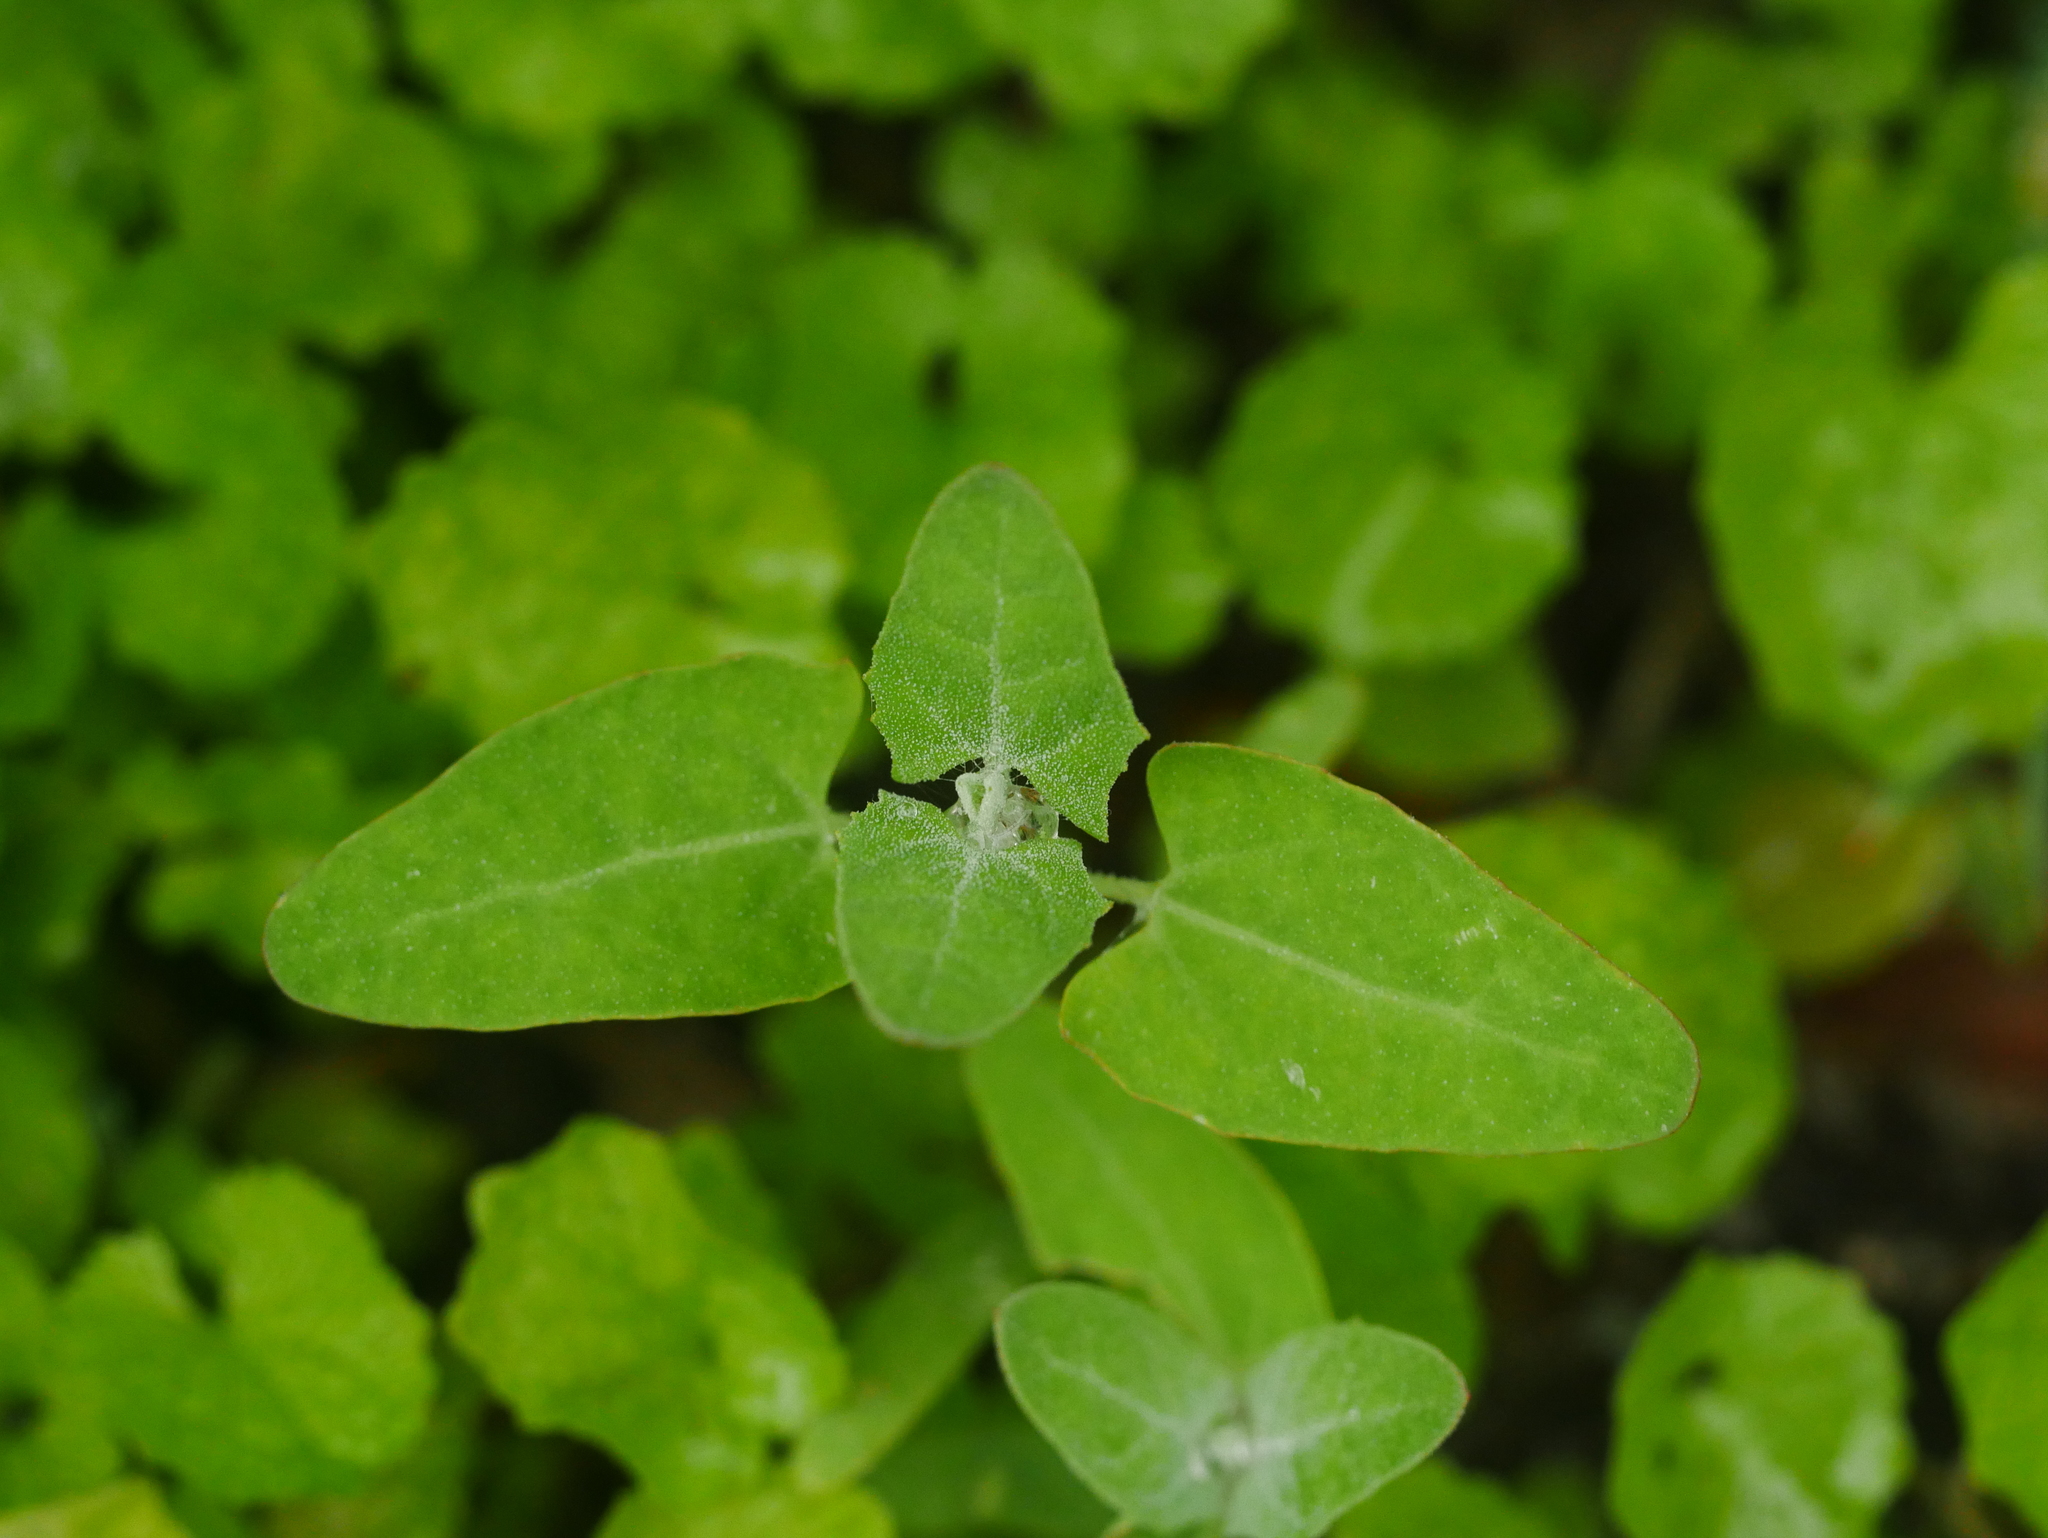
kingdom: Plantae
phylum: Tracheophyta
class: Magnoliopsida
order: Ranunculales
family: Papaveraceae
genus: Chelidonium
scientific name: Chelidonium majus
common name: Greater celandine
